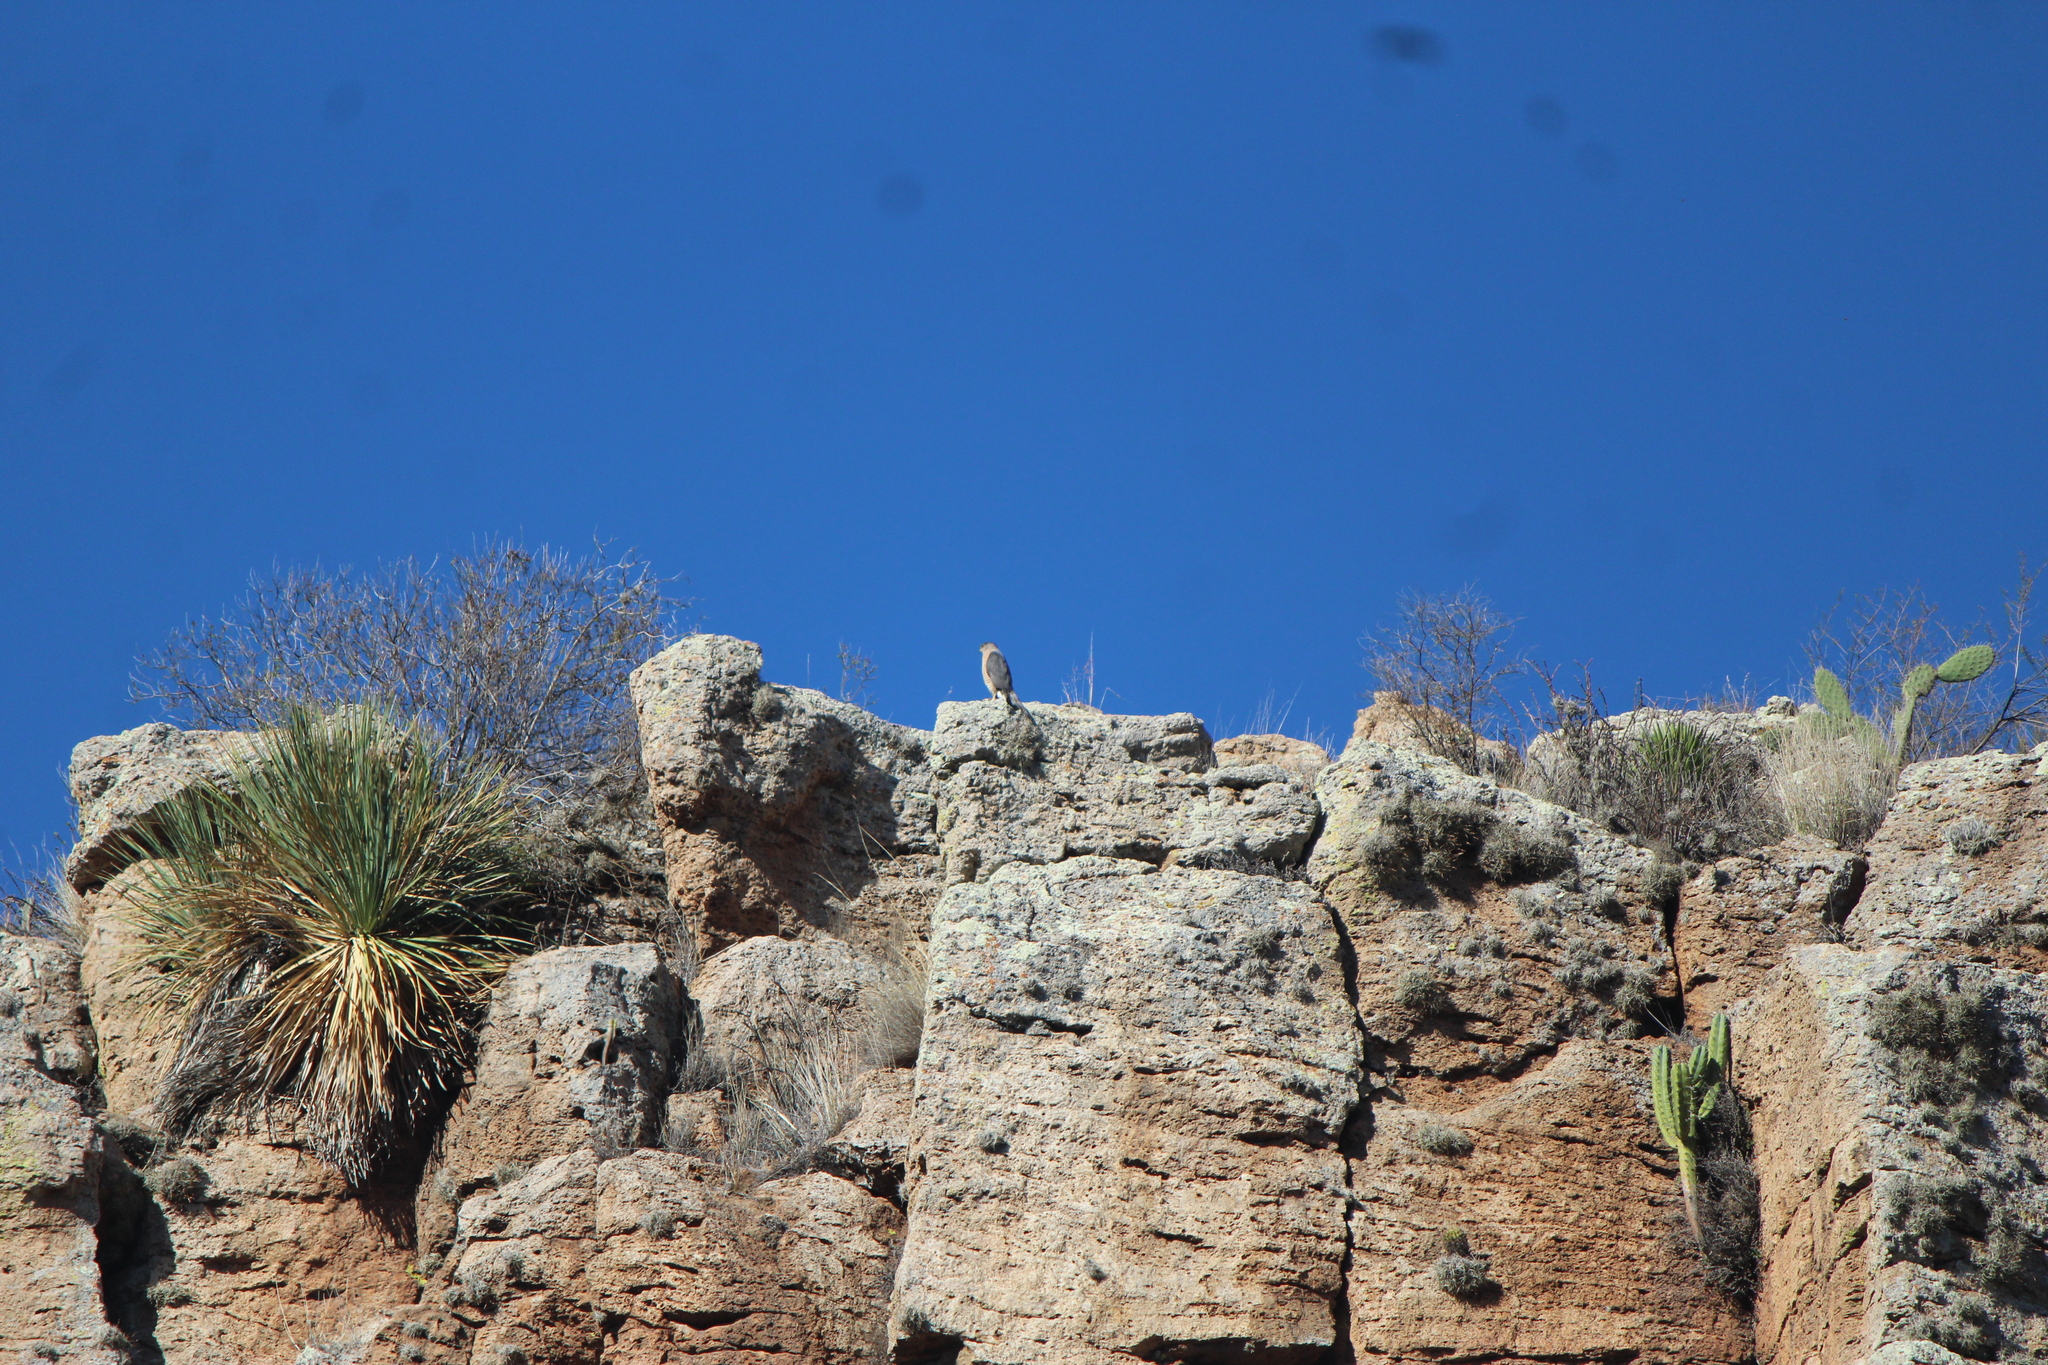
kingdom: Animalia
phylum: Chordata
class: Aves
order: Accipitriformes
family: Accipitridae
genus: Accipiter
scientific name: Accipiter cooperii
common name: Cooper's hawk
